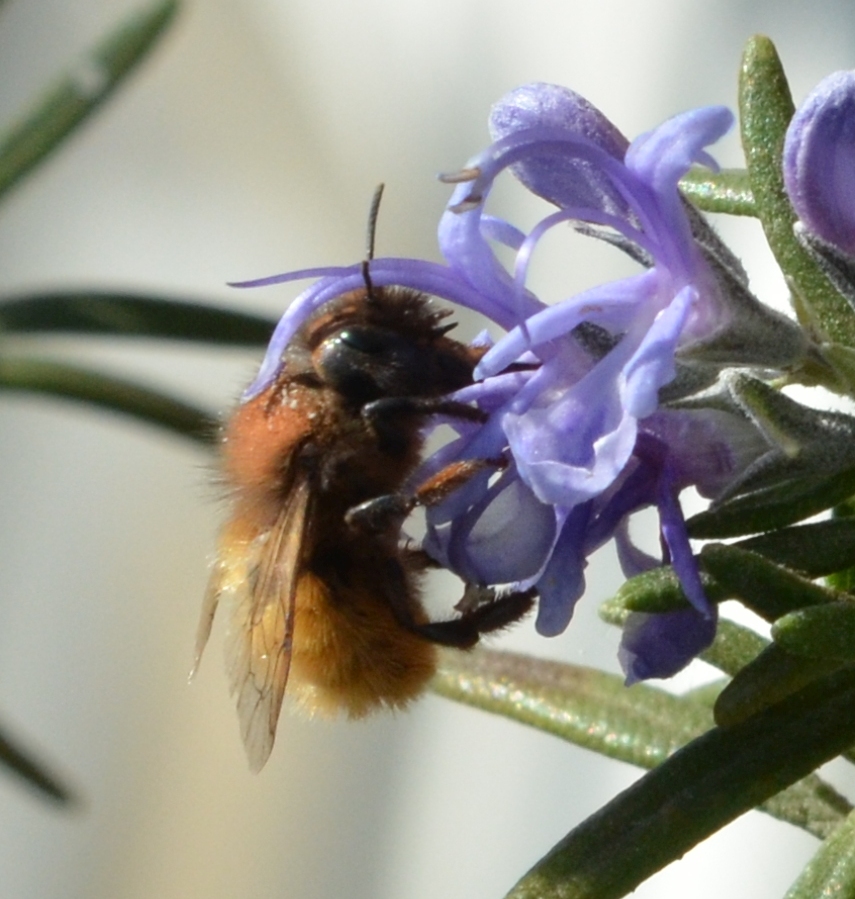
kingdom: Animalia
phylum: Arthropoda
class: Insecta
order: Hymenoptera
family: Megachilidae
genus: Osmia
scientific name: Osmia cornuta
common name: Mason bee
